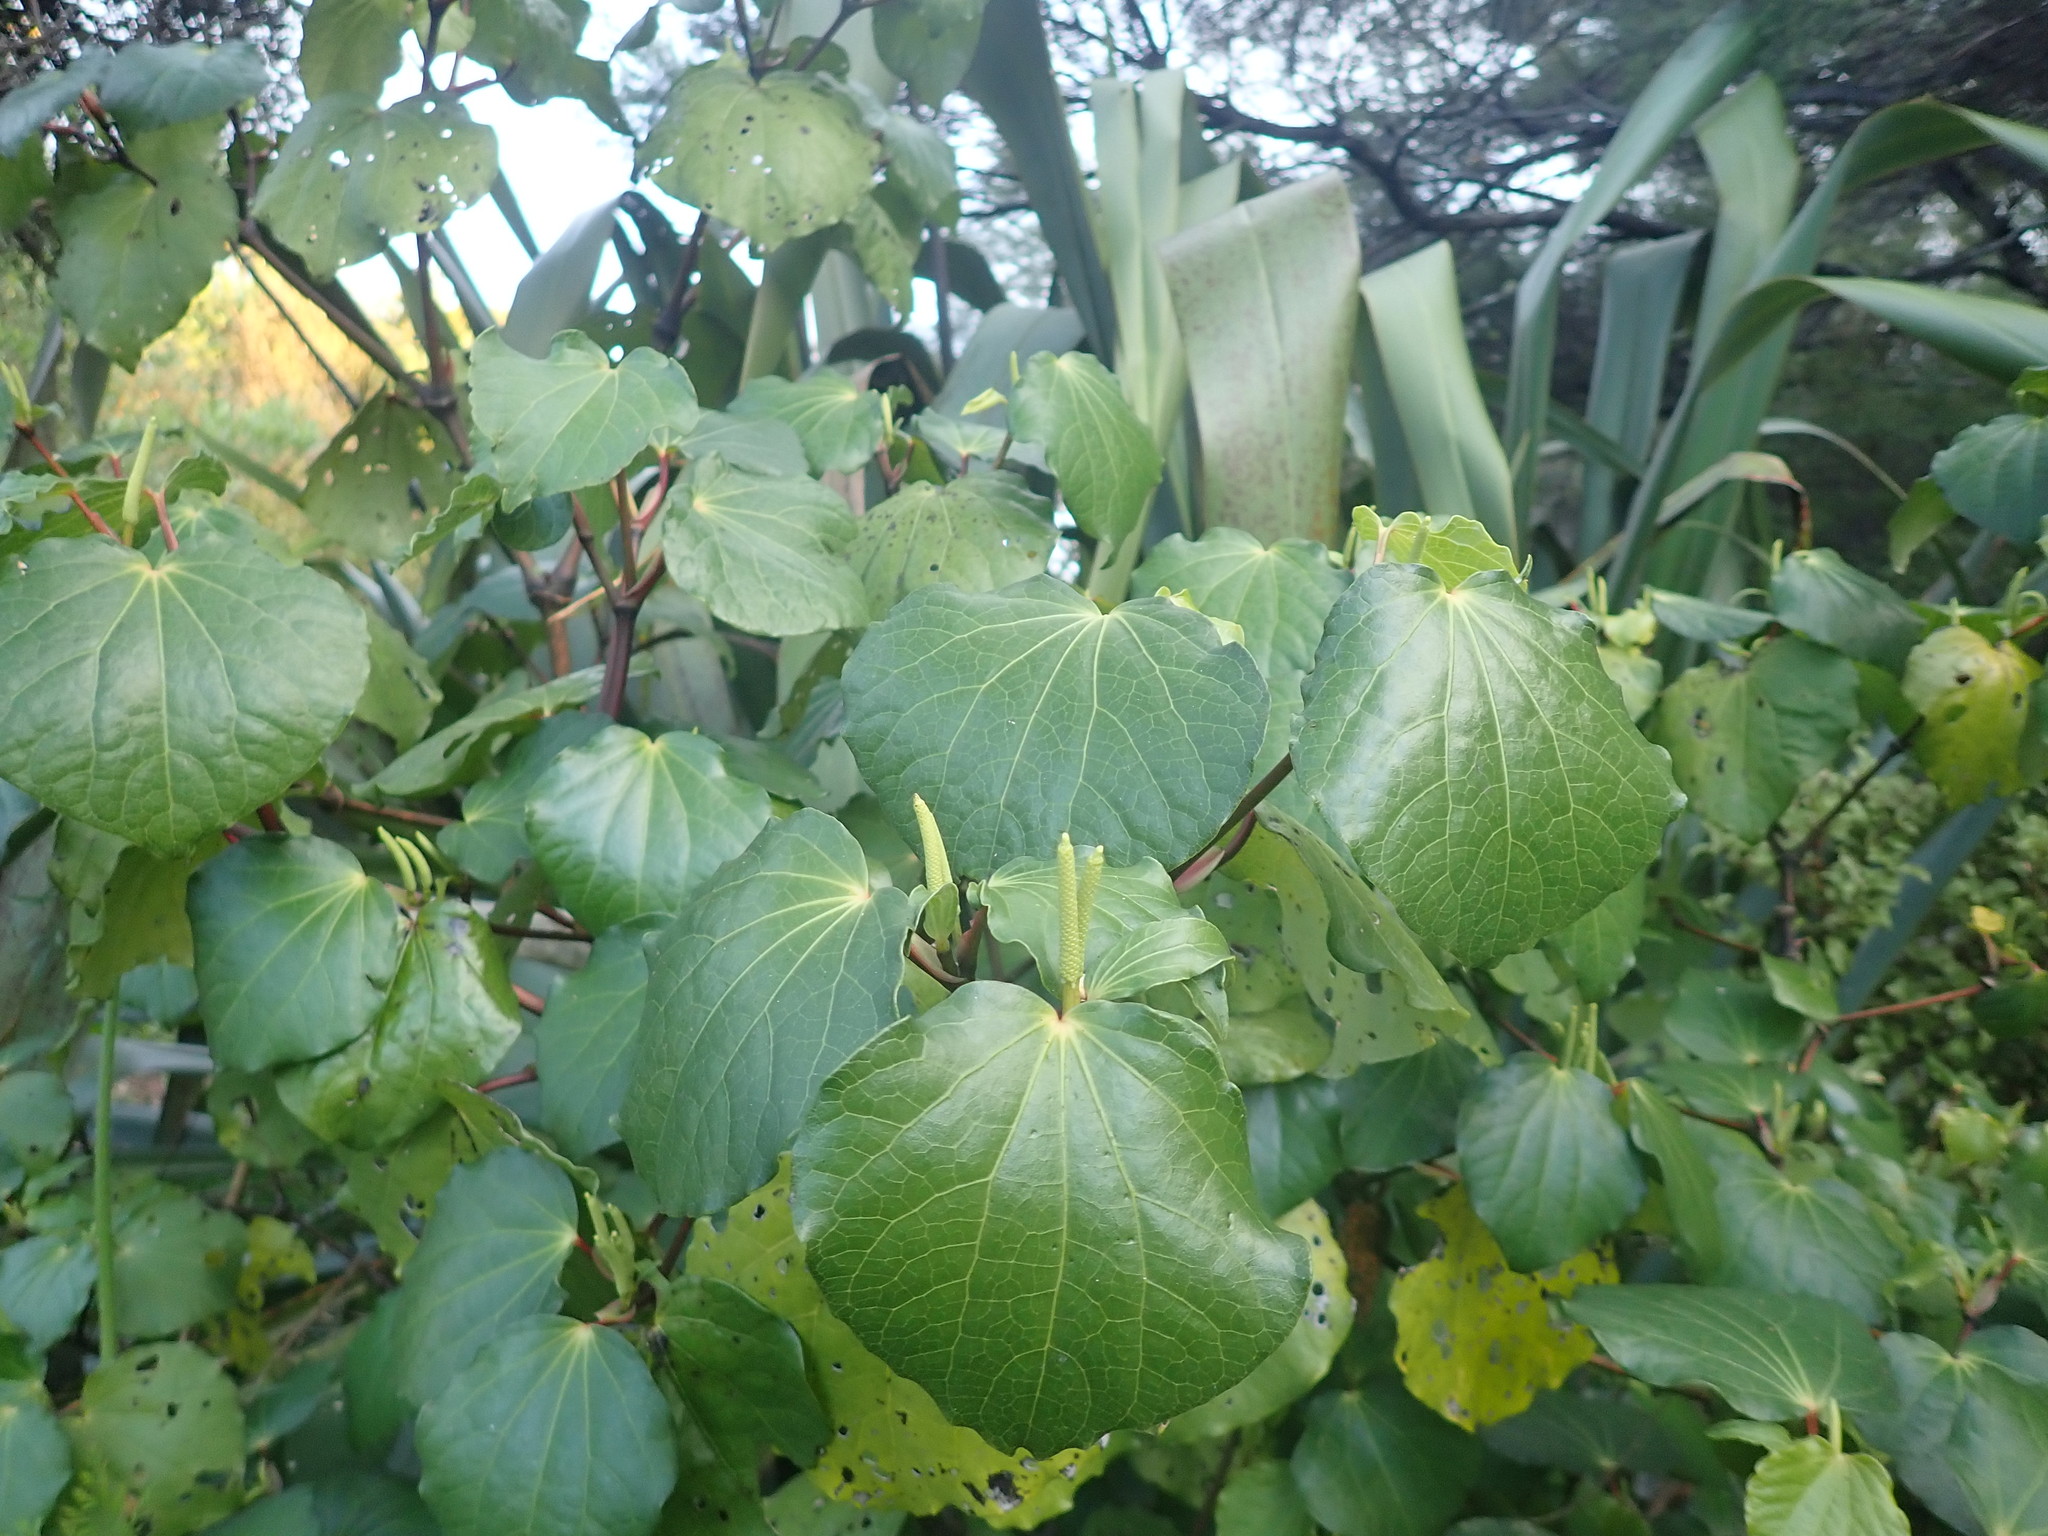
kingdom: Plantae
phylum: Tracheophyta
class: Magnoliopsida
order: Piperales
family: Piperaceae
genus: Macropiper
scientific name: Macropiper excelsum
